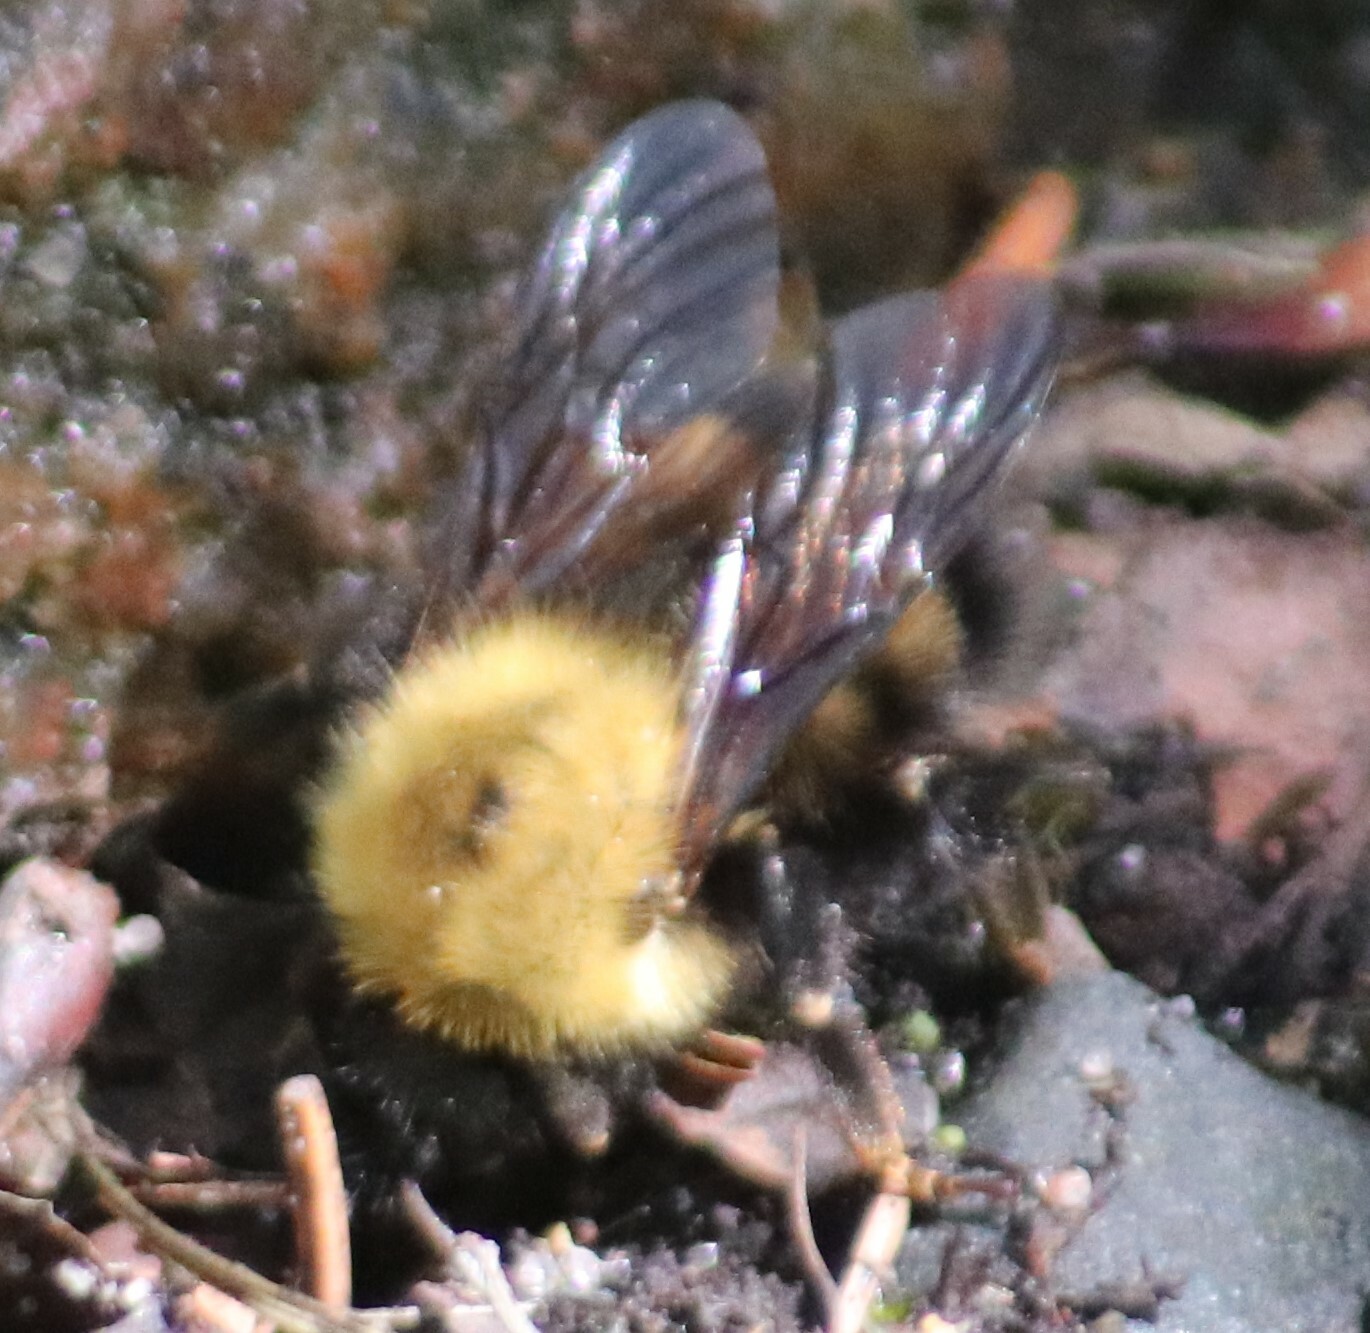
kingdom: Animalia
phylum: Arthropoda
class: Insecta
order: Hymenoptera
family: Apidae
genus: Bombus
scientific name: Bombus perplexus
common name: Confusing bumble bee
